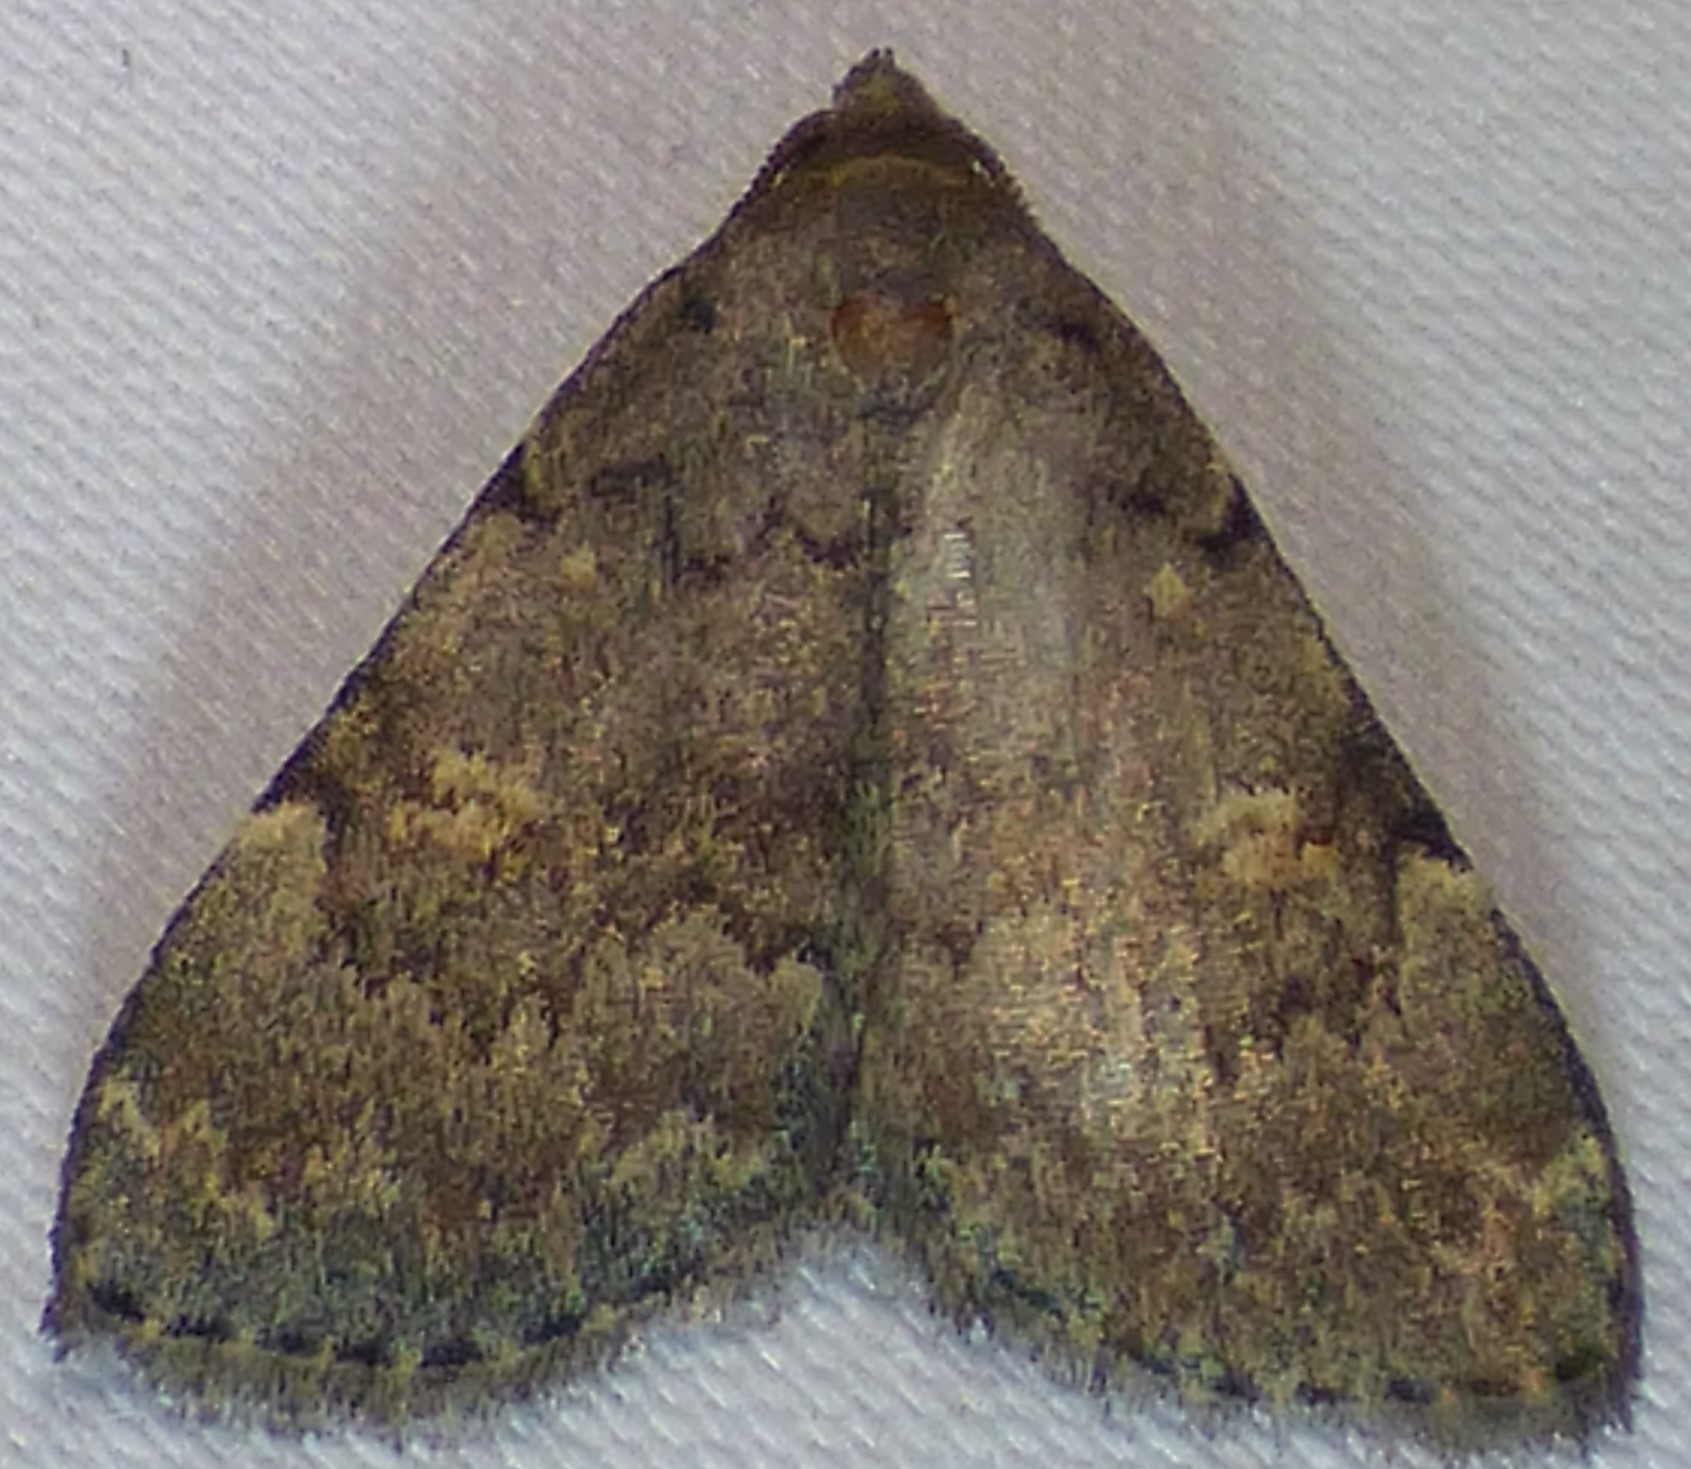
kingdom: Animalia
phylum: Arthropoda
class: Insecta
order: Lepidoptera
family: Erebidae
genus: Idia
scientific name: Idia aemula
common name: Common idia moth
